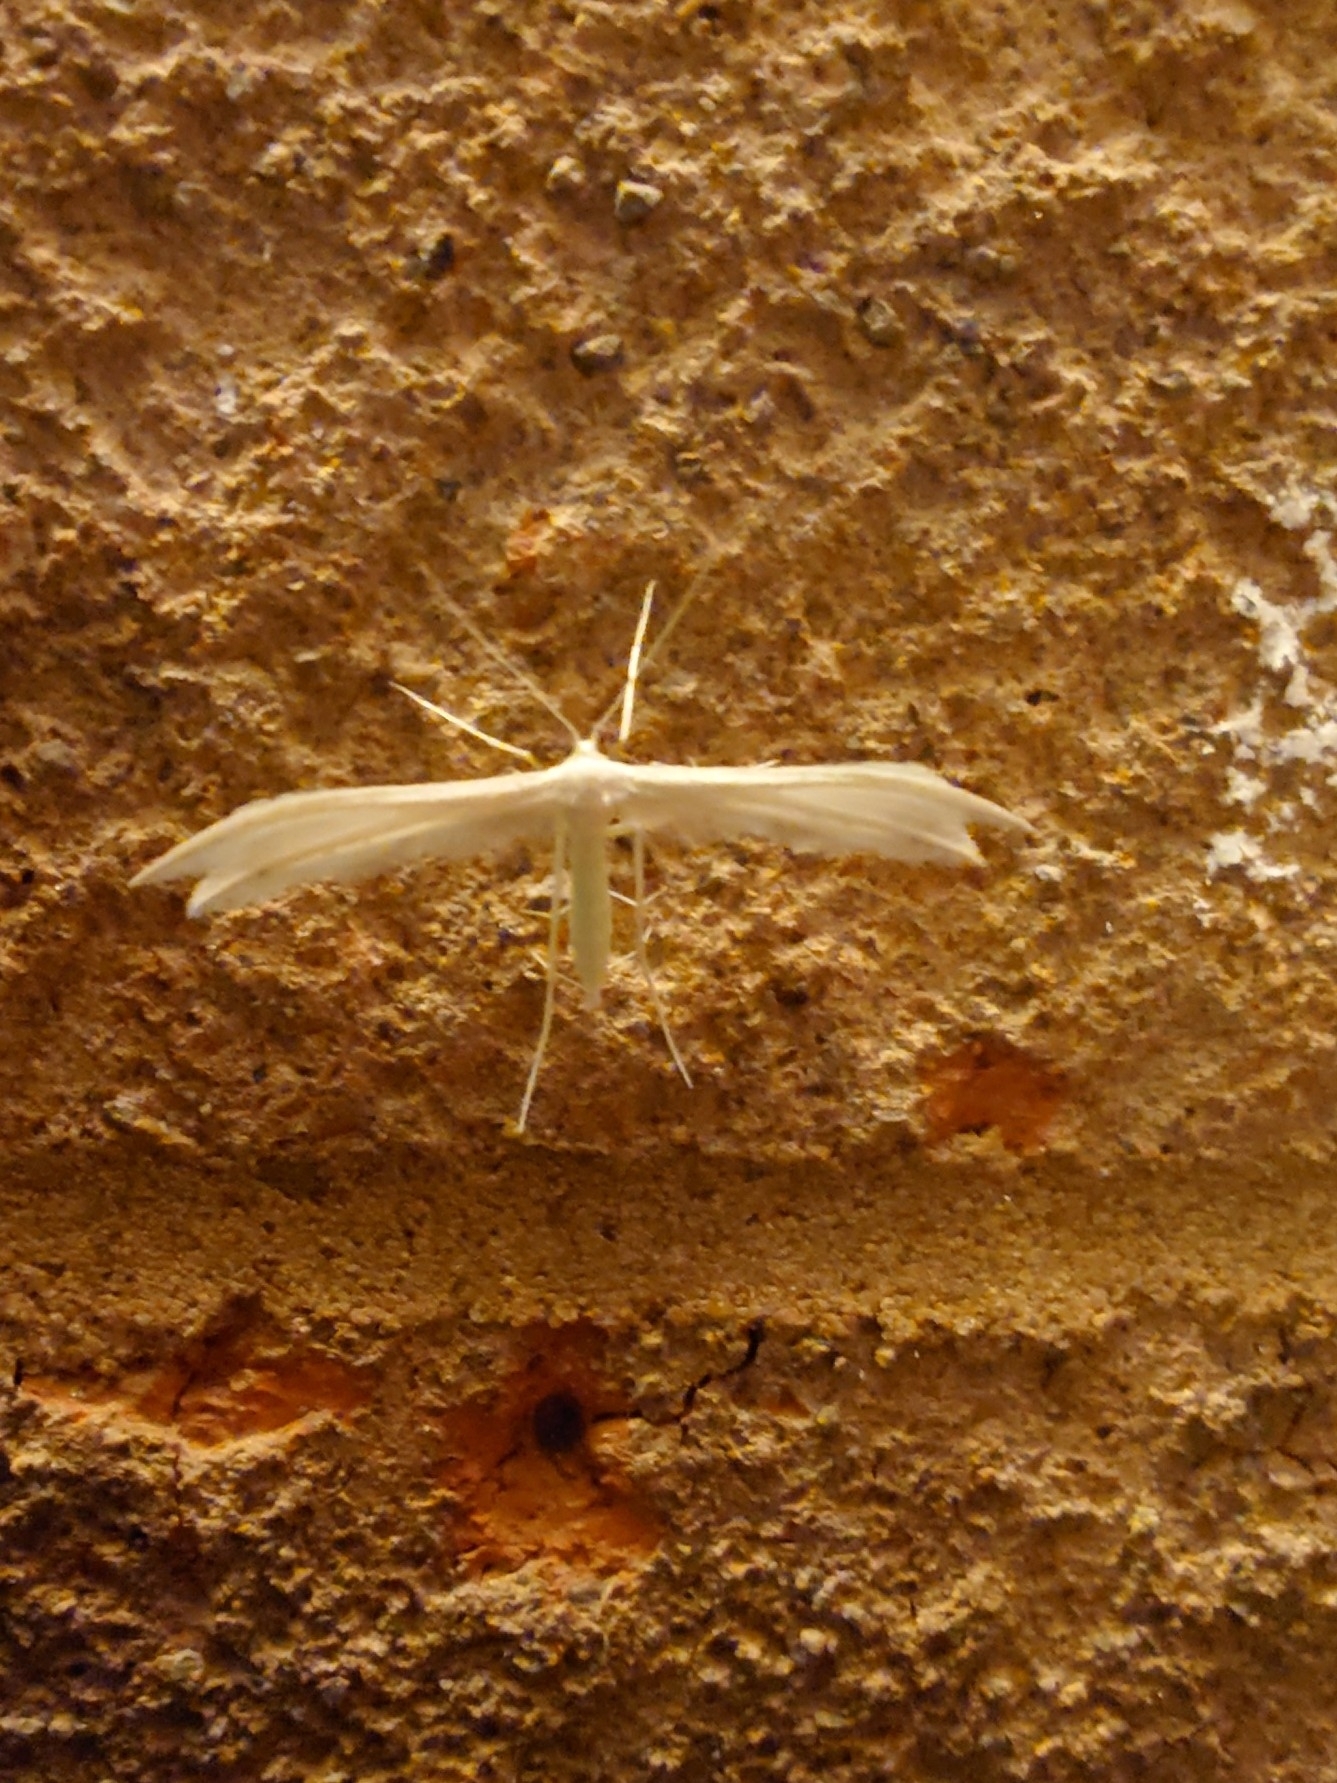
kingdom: Animalia
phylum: Arthropoda
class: Insecta
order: Lepidoptera
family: Pterophoridae
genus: Pterophorus
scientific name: Pterophorus pentadactyla
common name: White plume moth
